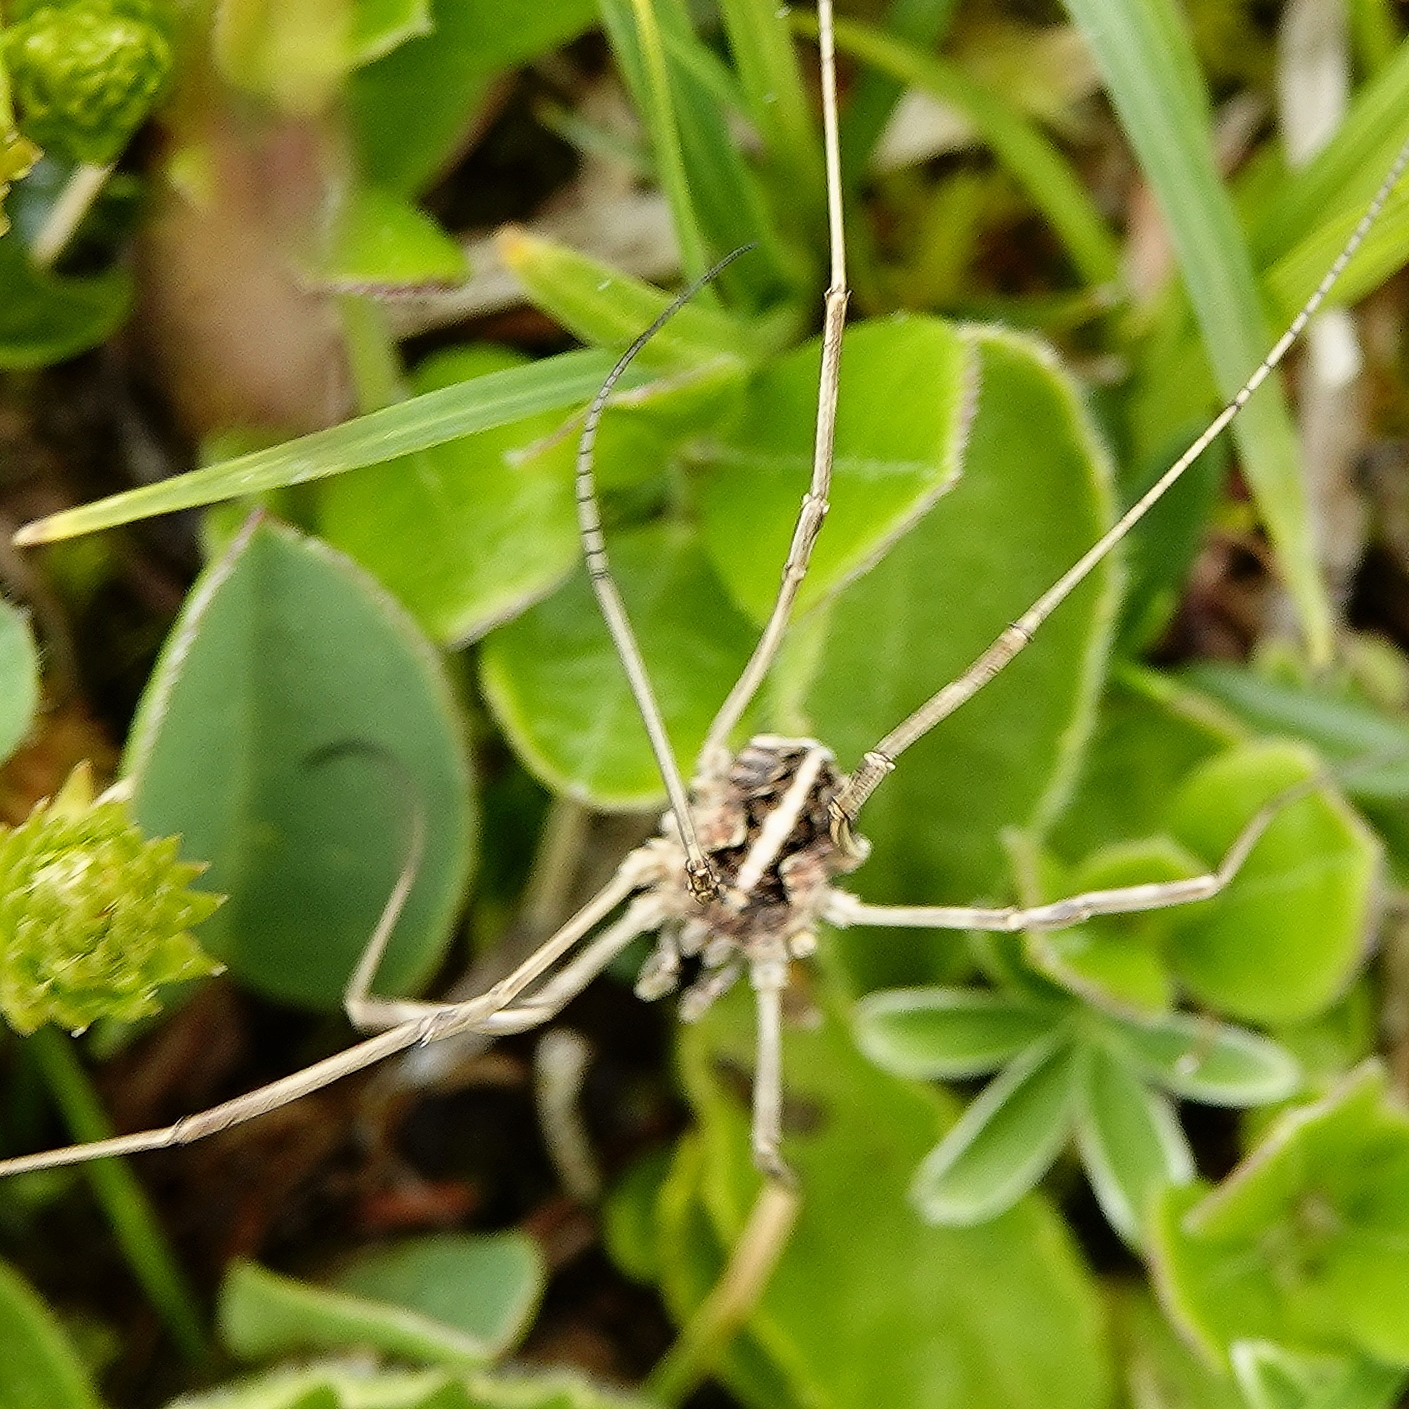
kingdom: Animalia
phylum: Arthropoda
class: Arachnida
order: Opiliones
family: Phalangiidae
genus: Mitopus
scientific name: Mitopus morio
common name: Saddleback harvestman
